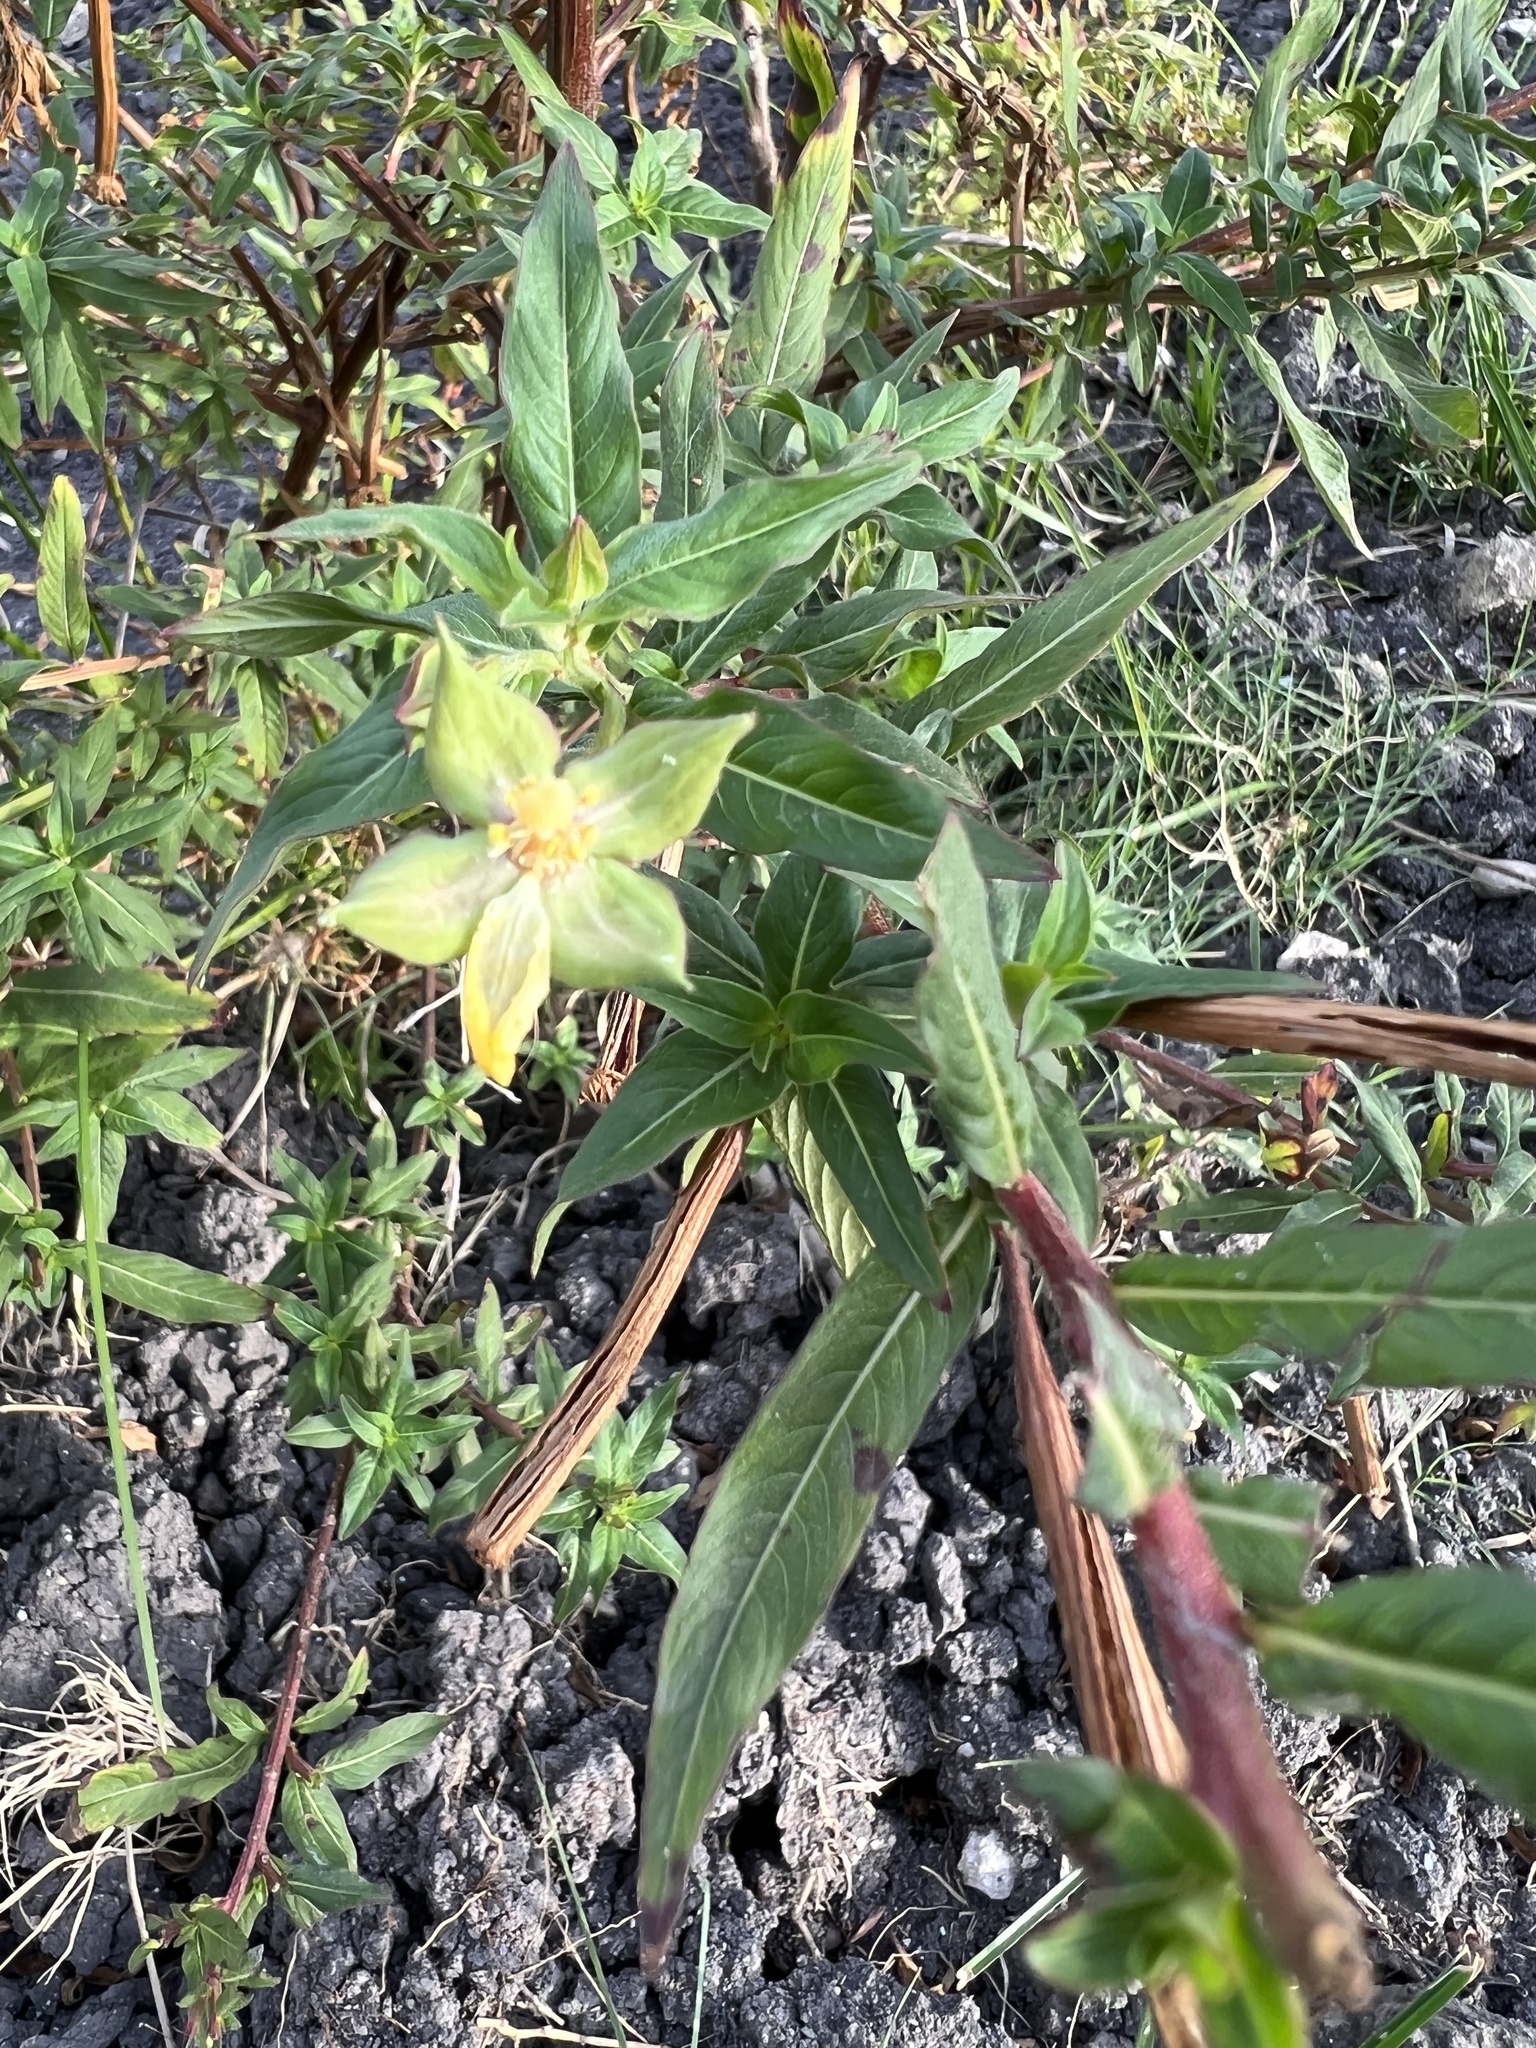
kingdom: Plantae
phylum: Tracheophyta
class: Magnoliopsida
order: Myrtales
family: Onagraceae
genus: Ludwigia
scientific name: Ludwigia peploides
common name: Floating primrose-willow
